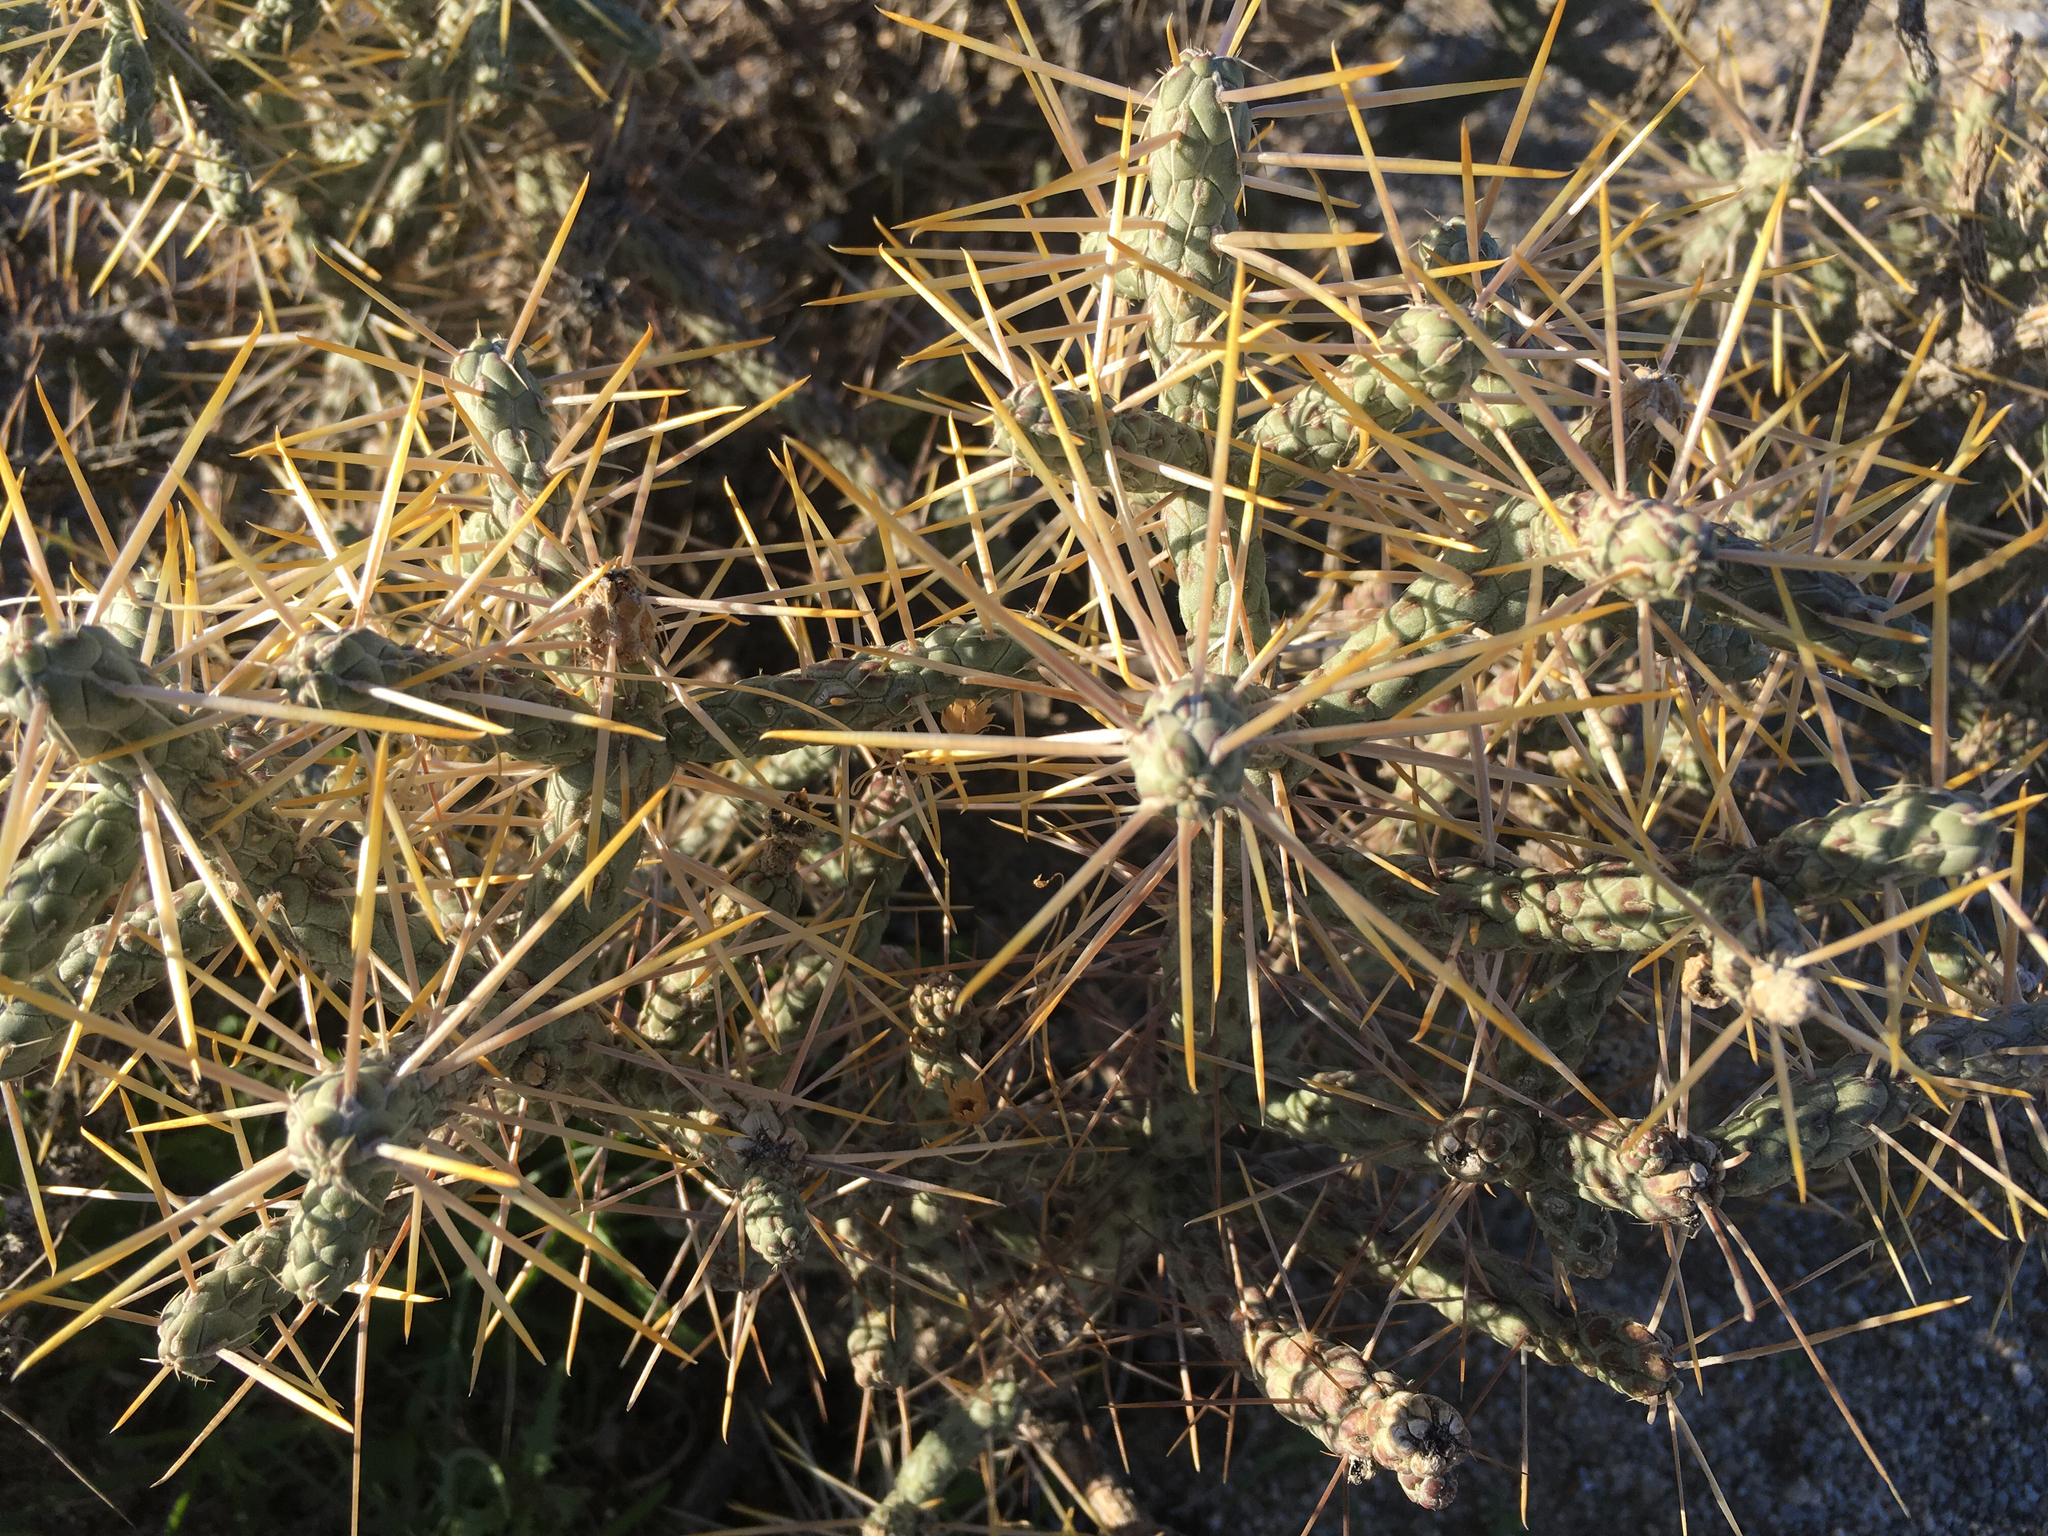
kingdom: Plantae
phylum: Tracheophyta
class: Magnoliopsida
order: Caryophyllales
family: Cactaceae
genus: Cylindropuntia
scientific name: Cylindropuntia ramosissima
